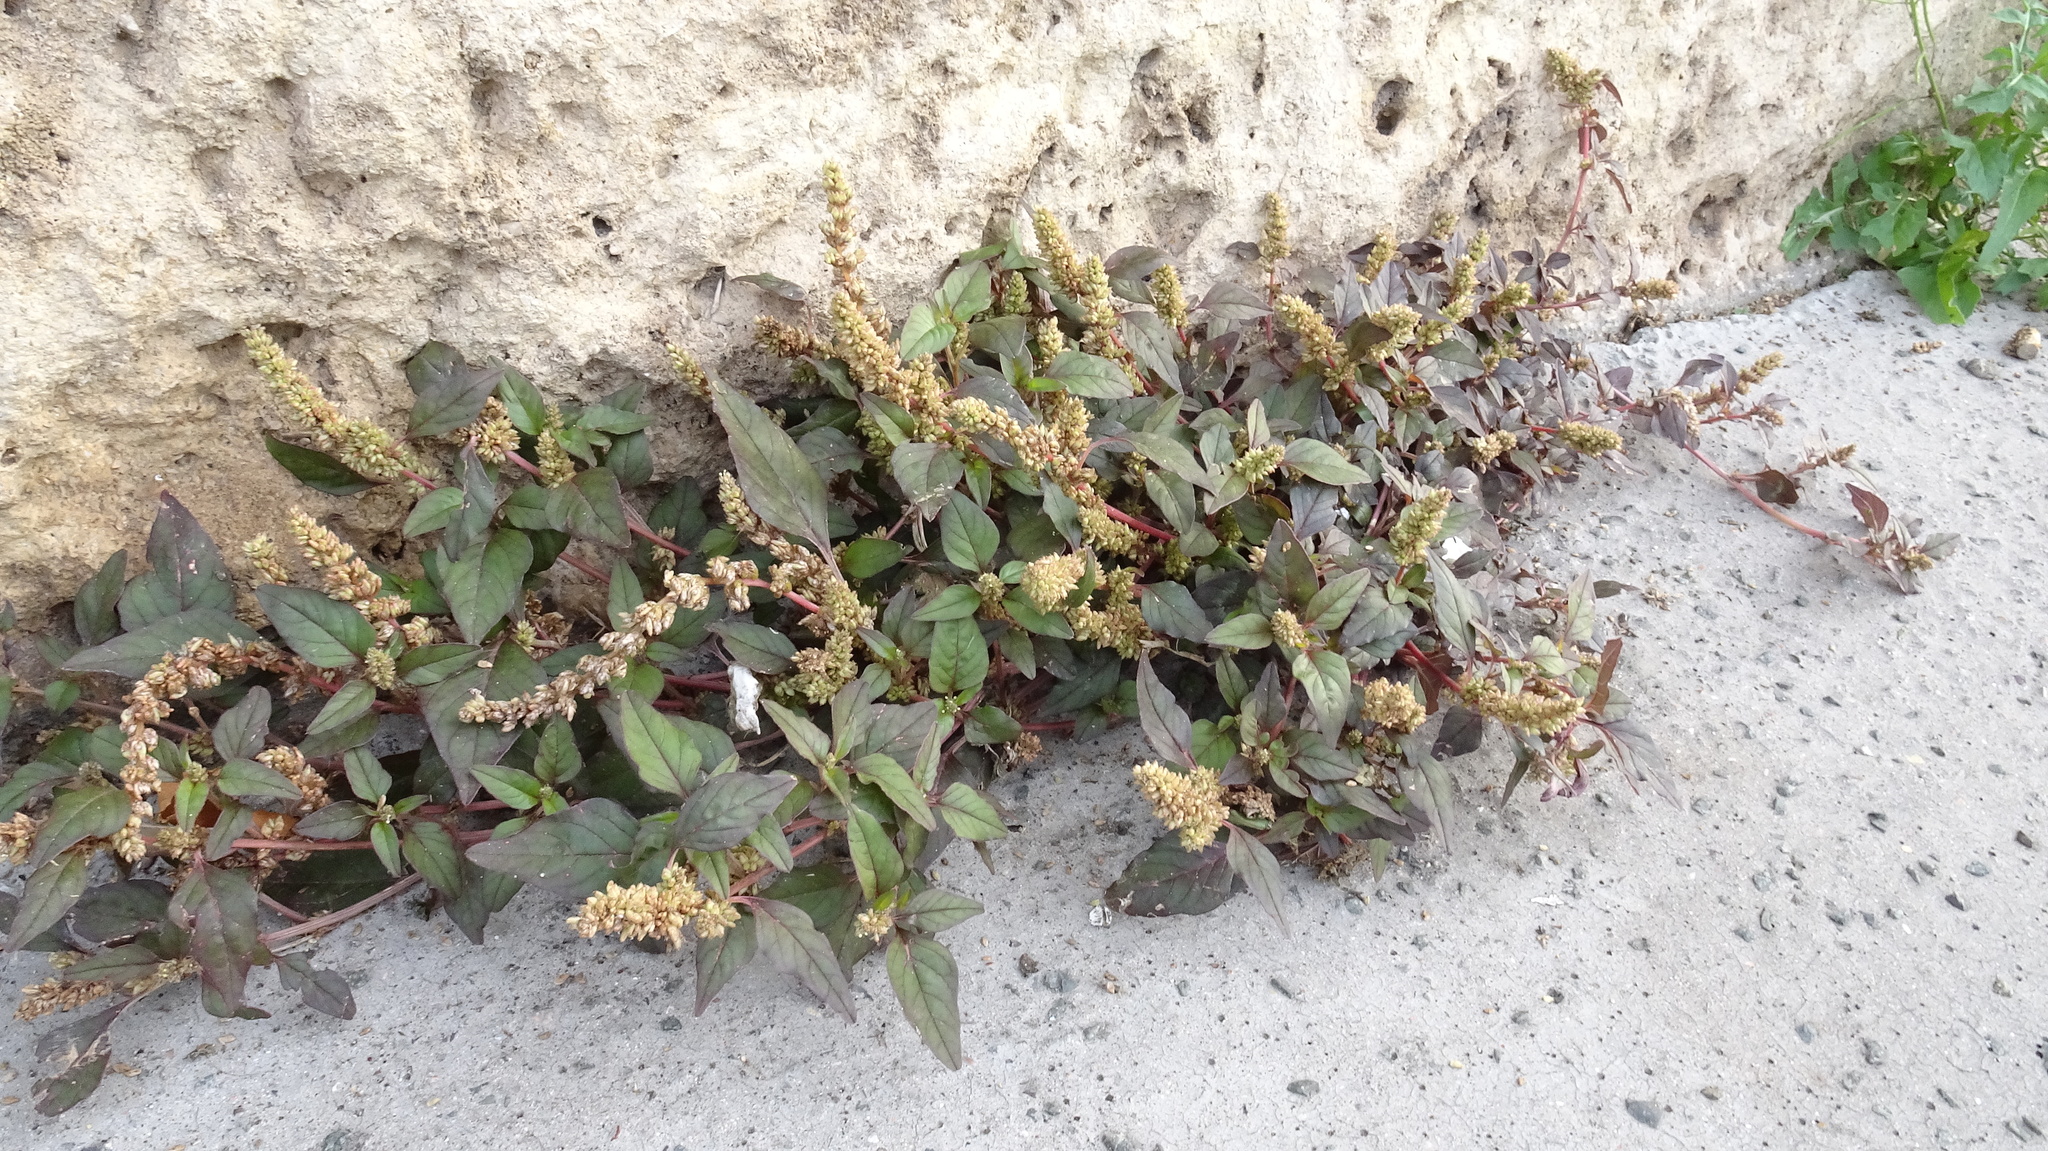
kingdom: Plantae
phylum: Tracheophyta
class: Magnoliopsida
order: Caryophyllales
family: Amaranthaceae
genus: Amaranthus
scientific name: Amaranthus deflexus
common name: Perennial pigweed
